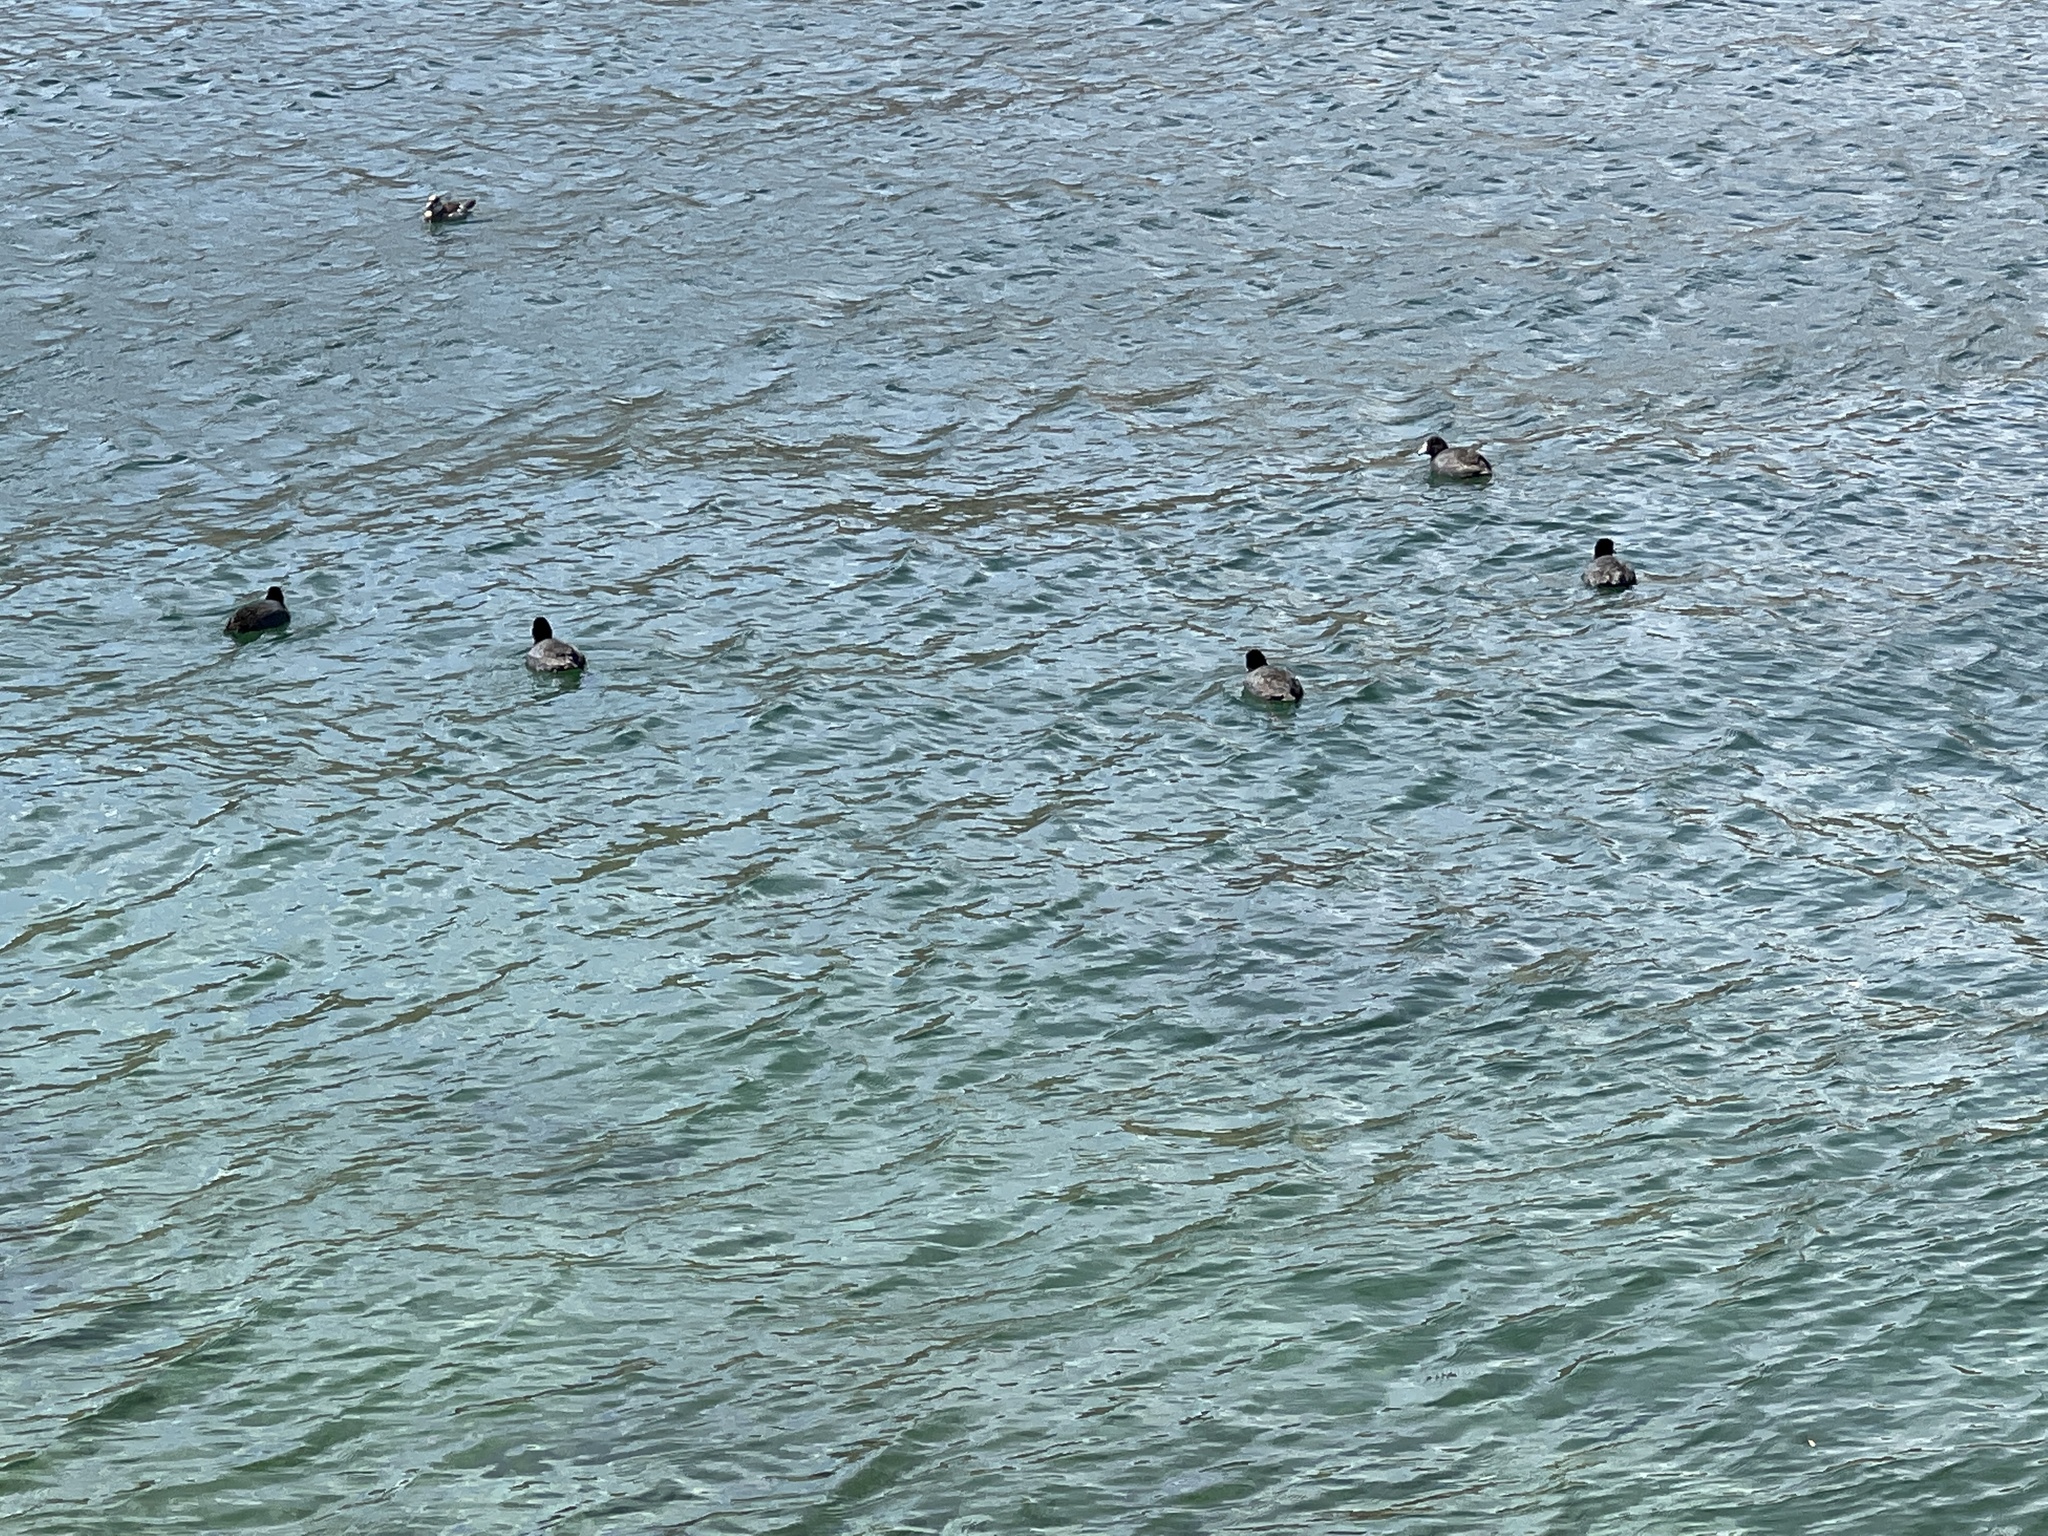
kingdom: Animalia
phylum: Chordata
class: Aves
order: Gruiformes
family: Rallidae
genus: Fulica
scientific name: Fulica americana
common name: American coot
